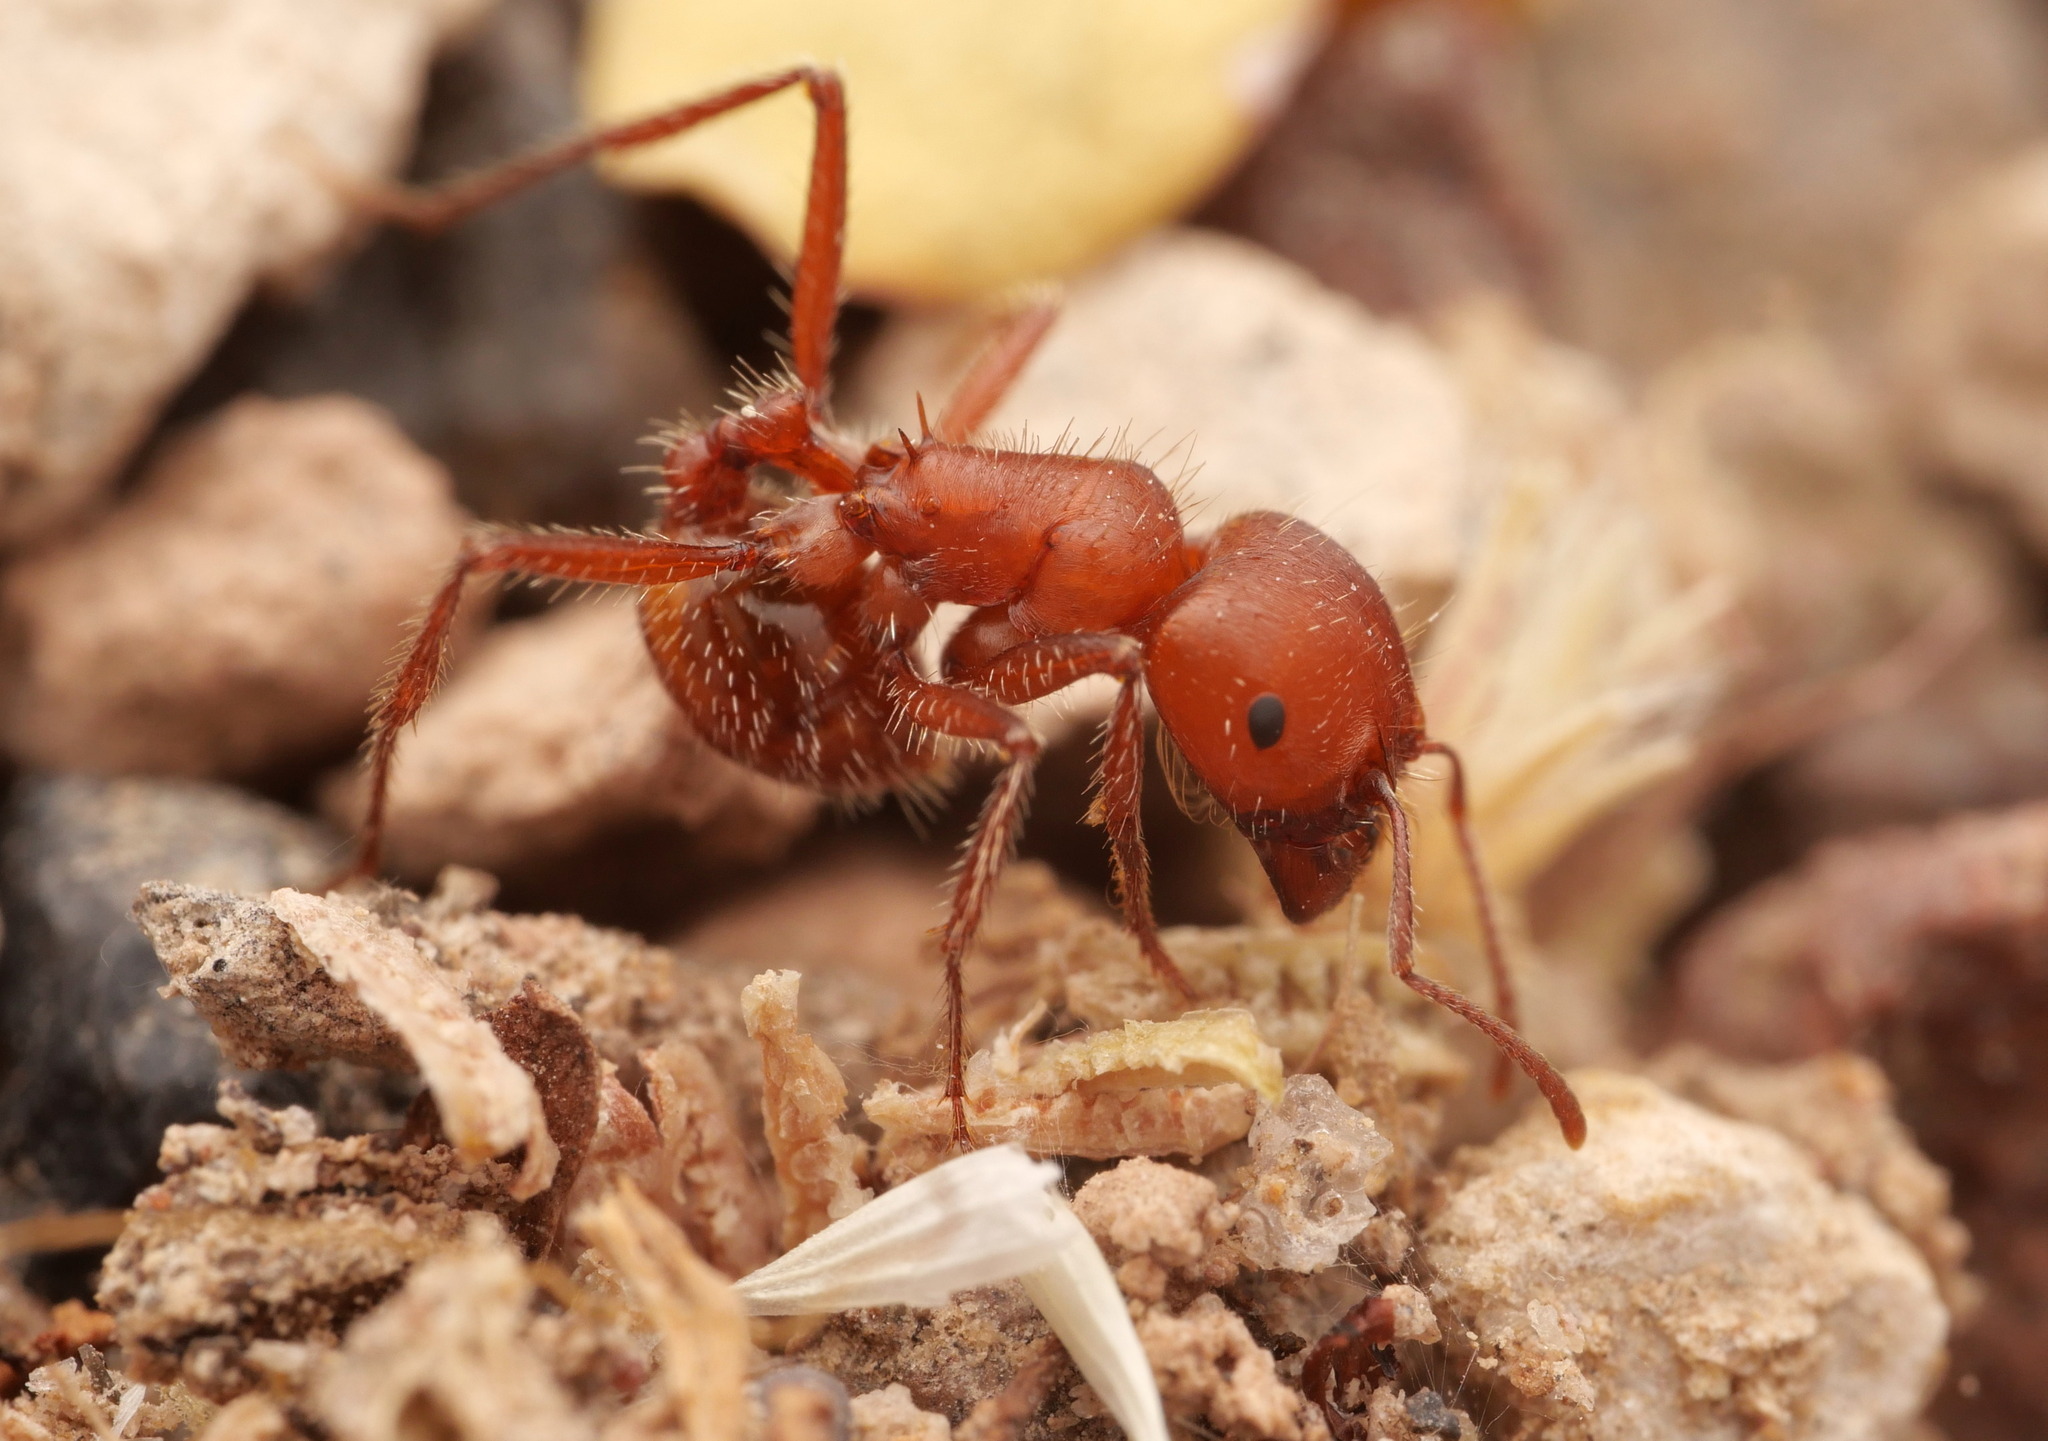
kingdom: Animalia
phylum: Arthropoda
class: Insecta
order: Hymenoptera
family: Formicidae
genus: Pogonomyrmex
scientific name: Pogonomyrmex tenuispinus
